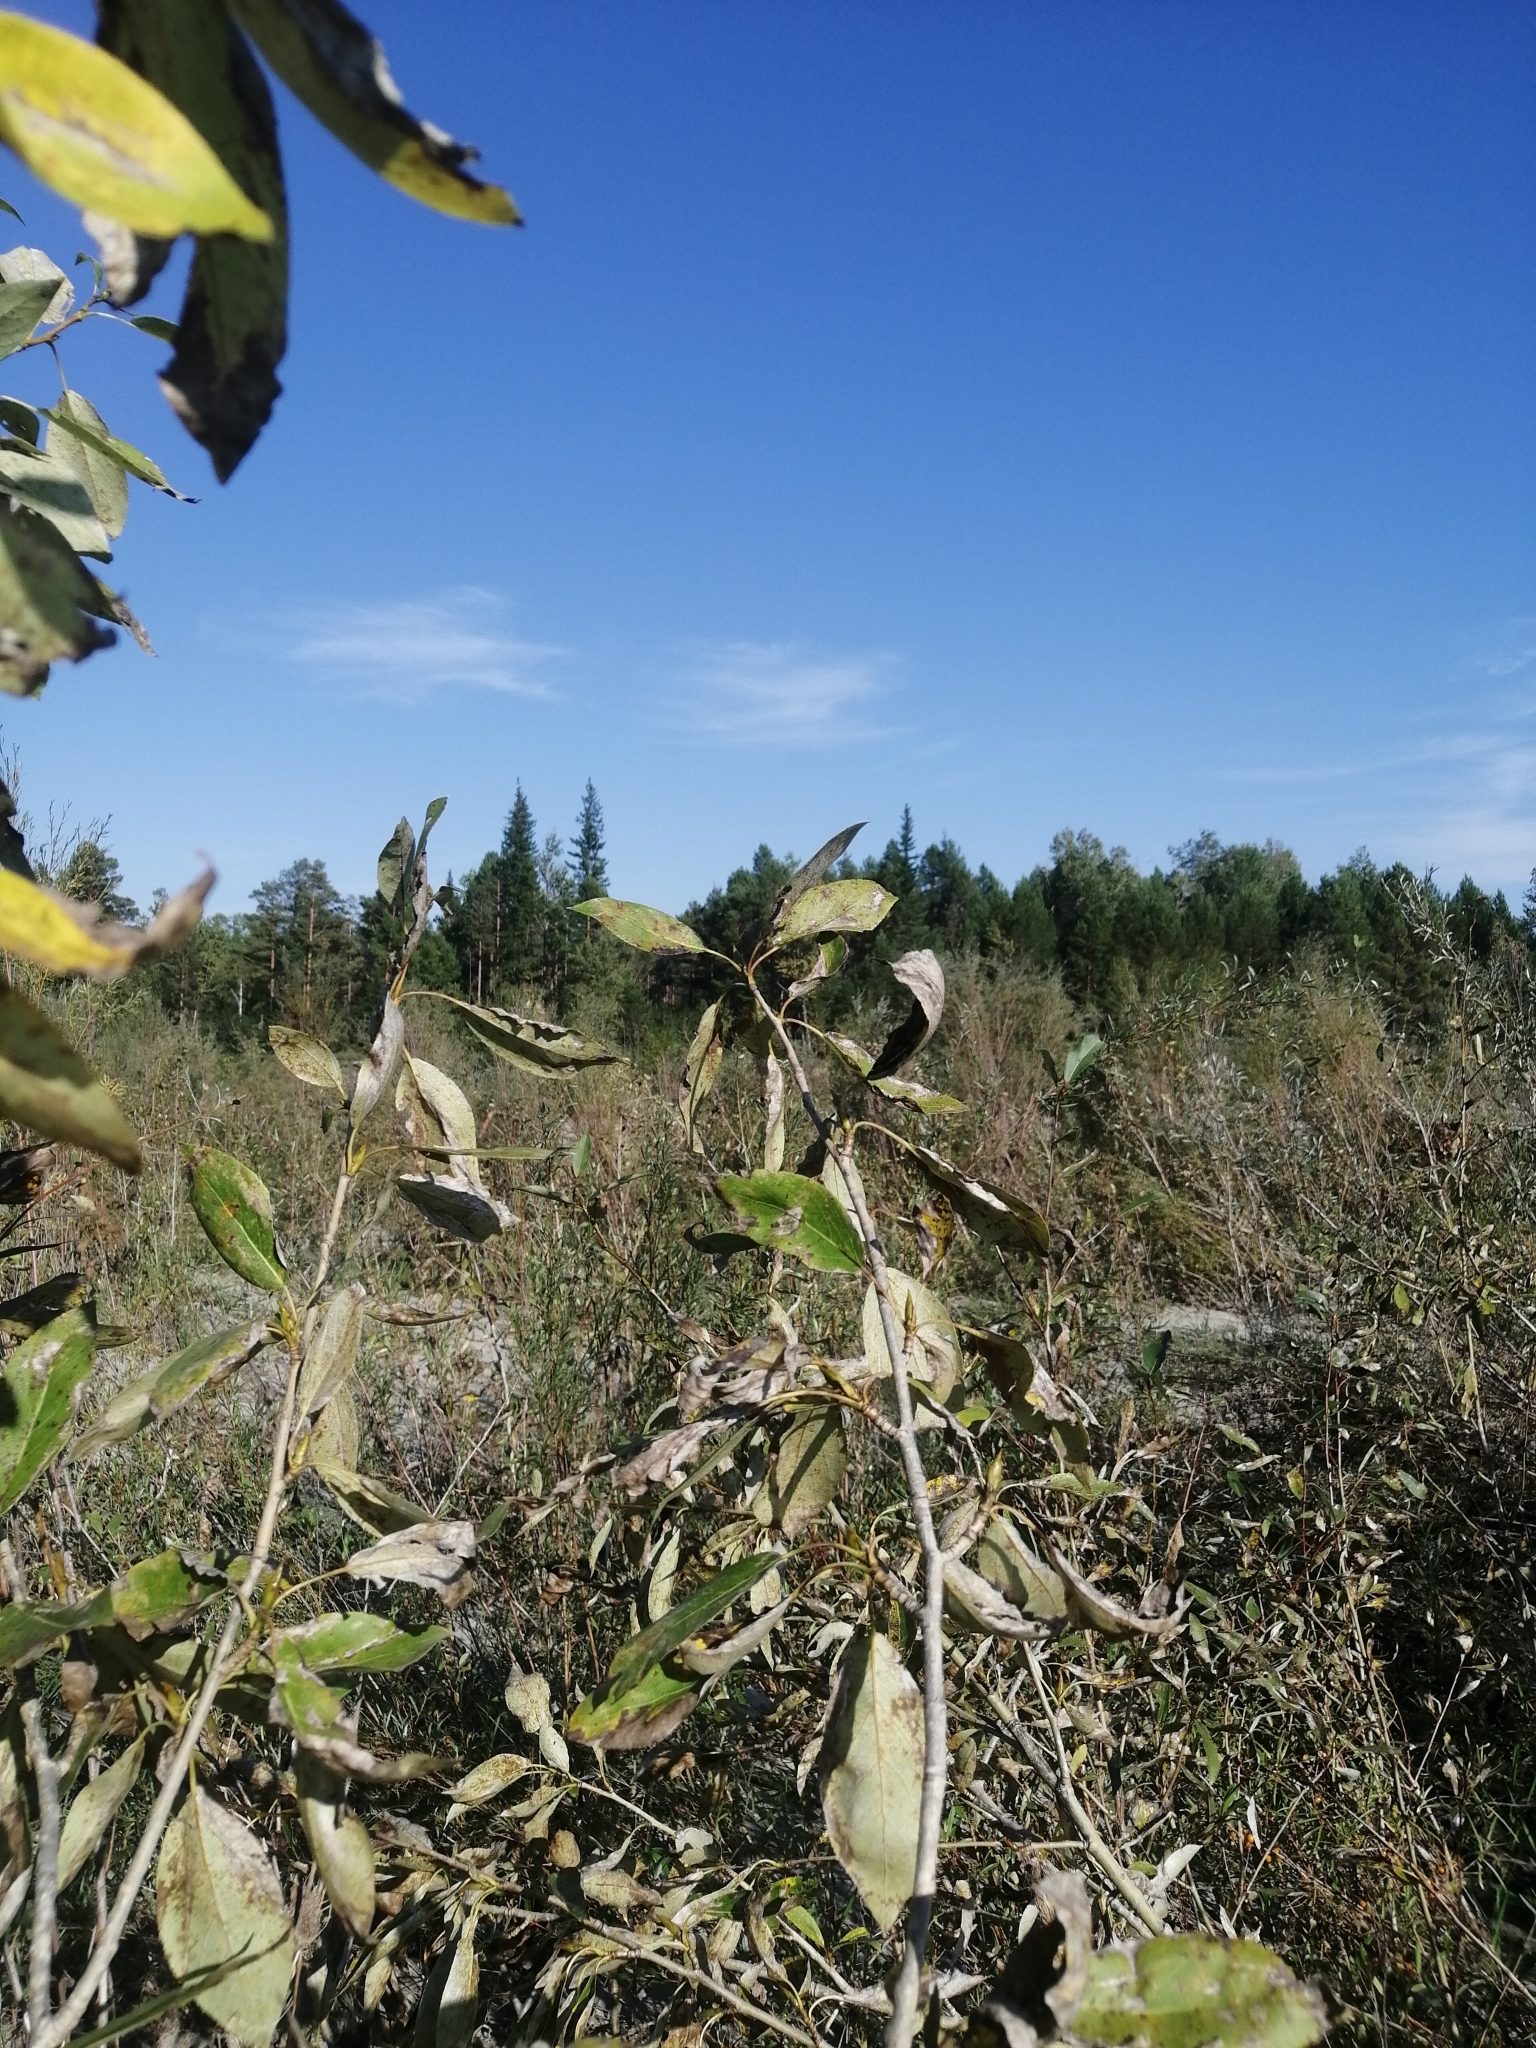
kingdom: Plantae
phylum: Tracheophyta
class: Magnoliopsida
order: Malpighiales
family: Salicaceae
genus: Populus
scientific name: Populus suaveolens
